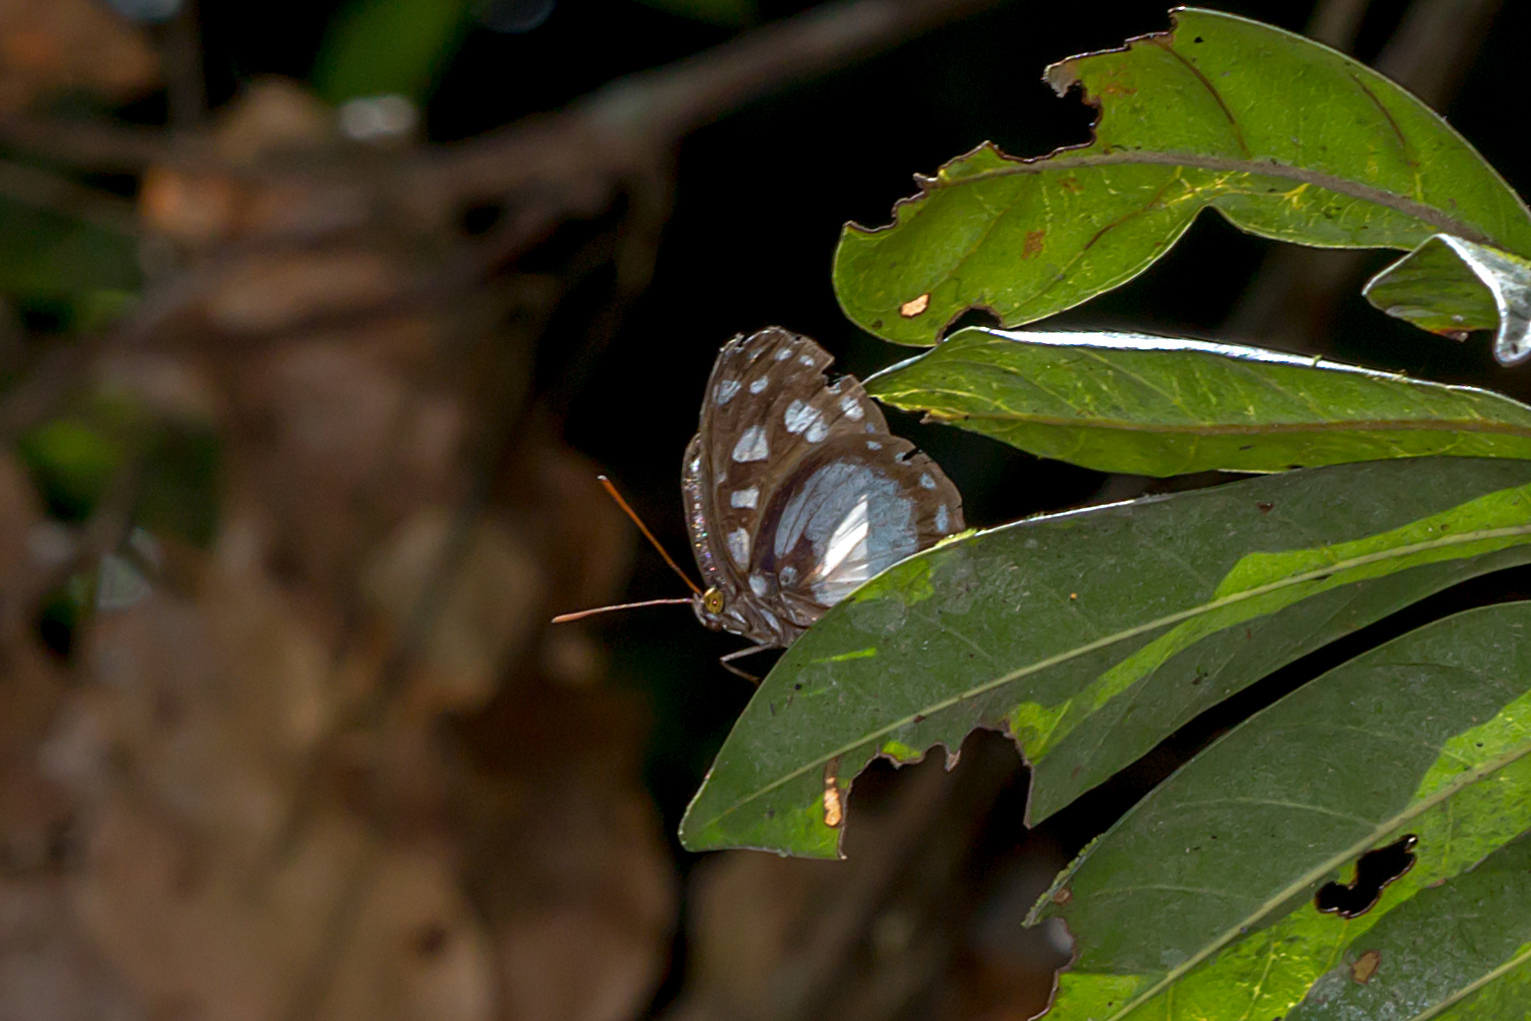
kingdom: Animalia
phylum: Arthropoda
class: Insecta
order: Lepidoptera
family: Nymphalidae
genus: Neptis
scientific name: Neptis praslini
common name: Yellow-eyed plane
